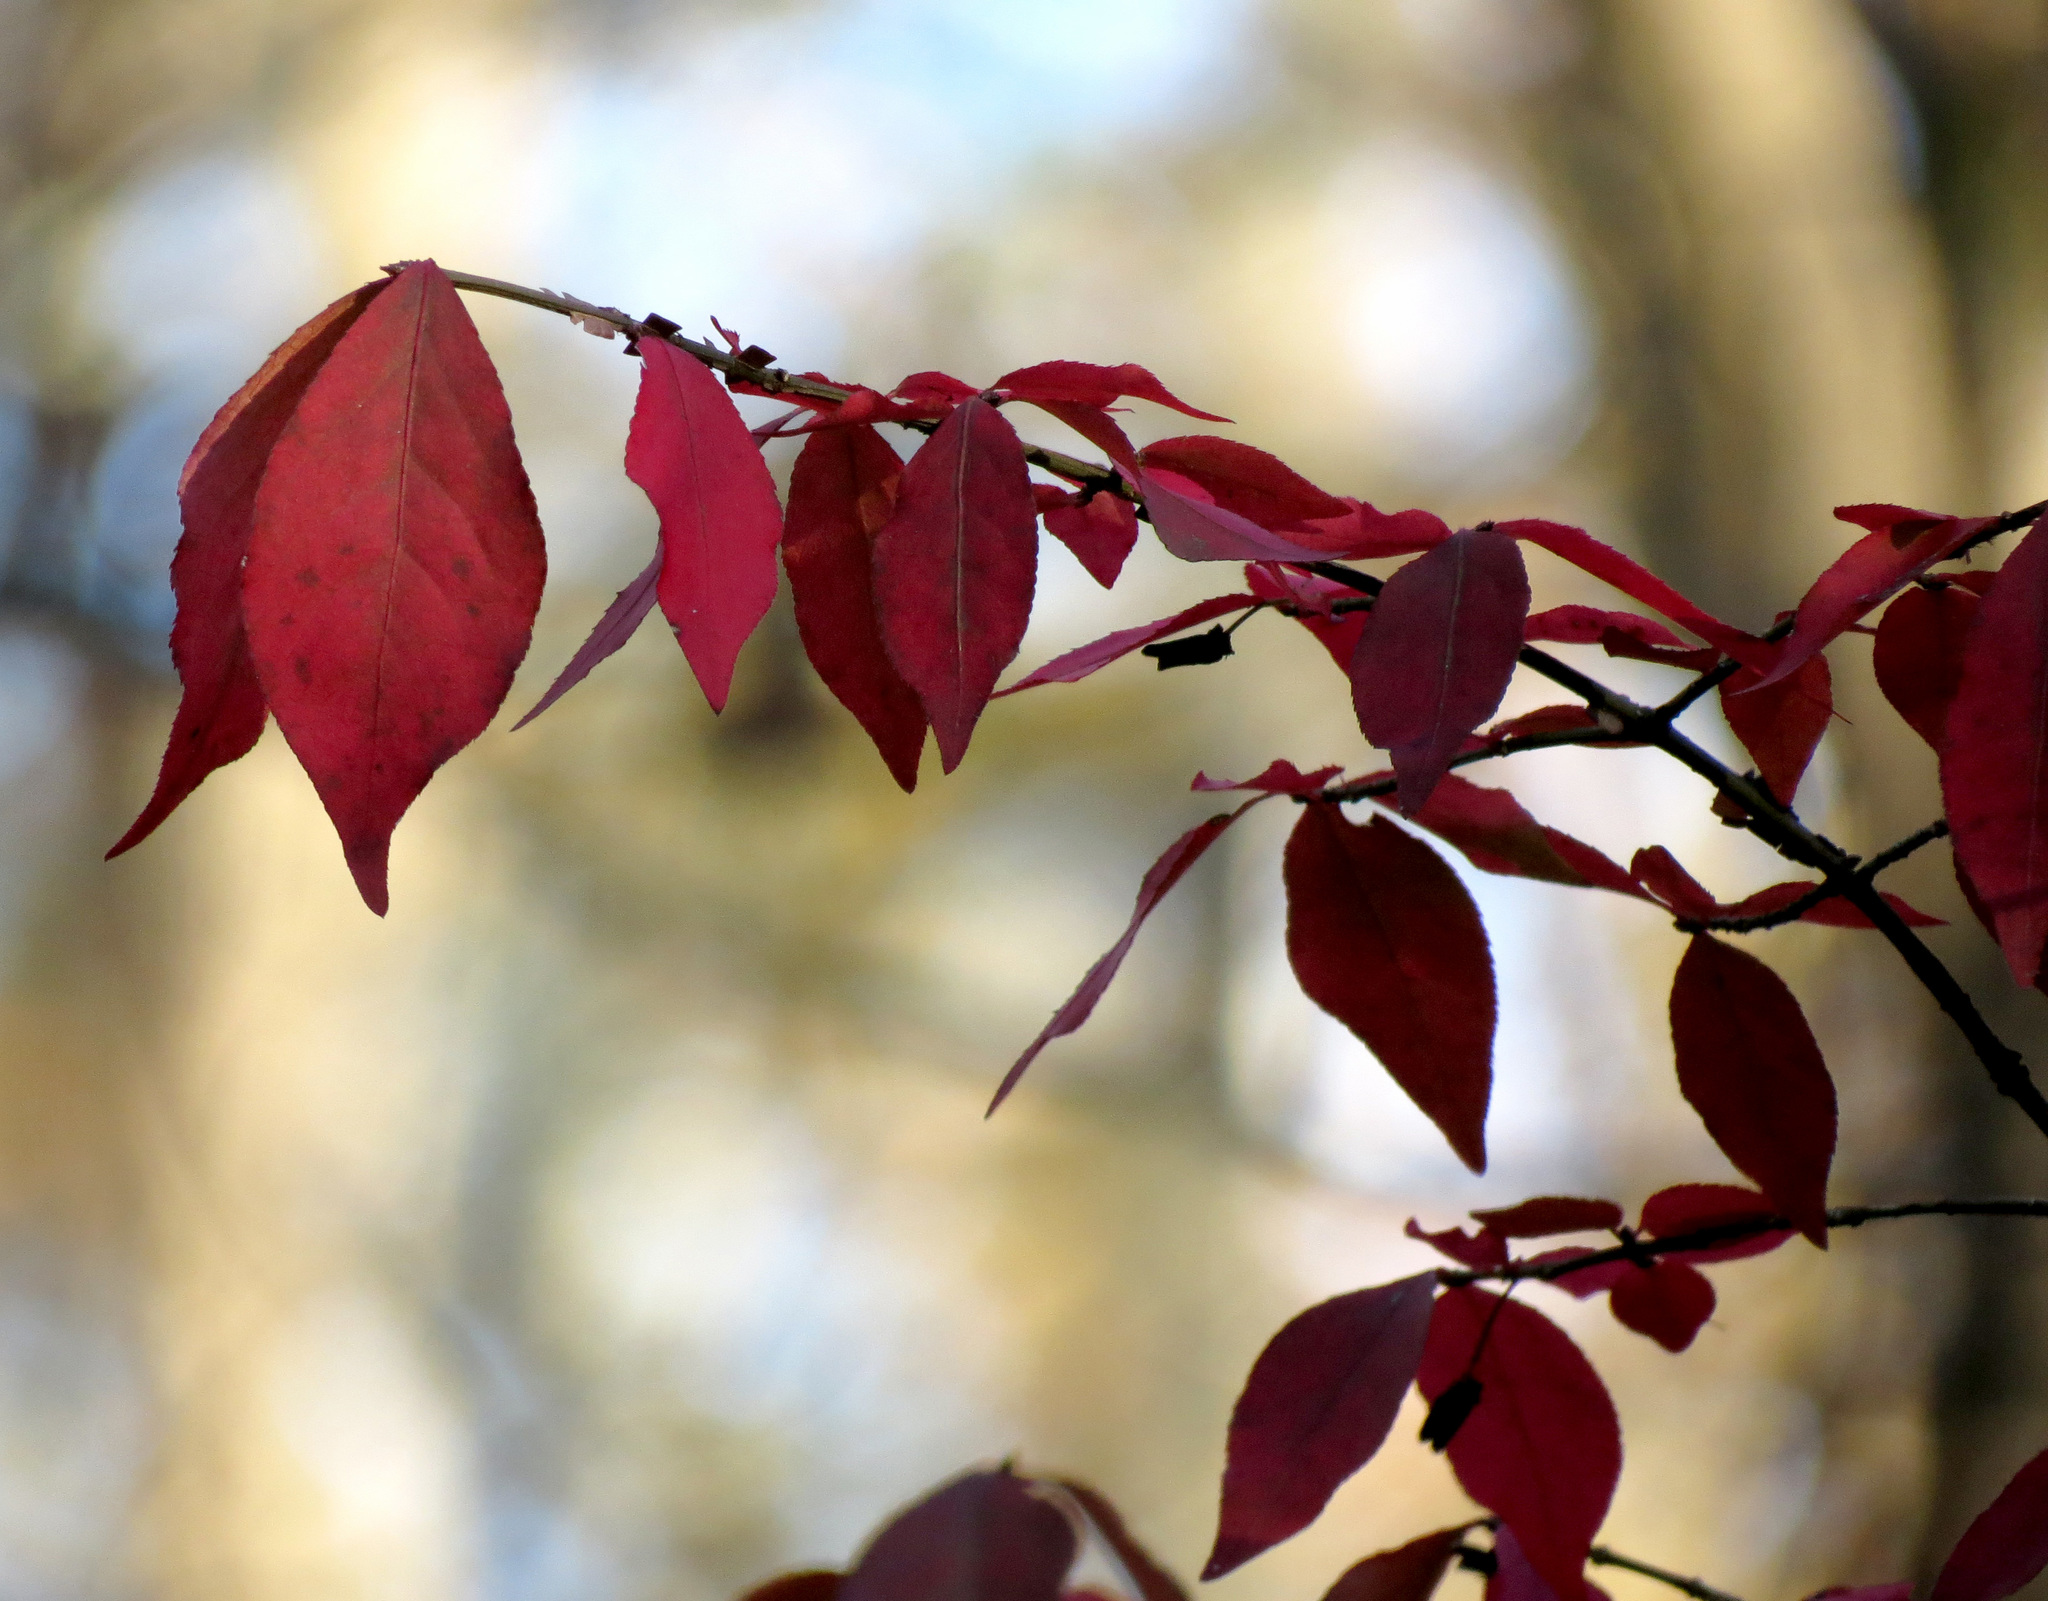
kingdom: Plantae
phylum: Tracheophyta
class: Magnoliopsida
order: Celastrales
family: Celastraceae
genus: Euonymus
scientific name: Euonymus alatus
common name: Winged euonymus
